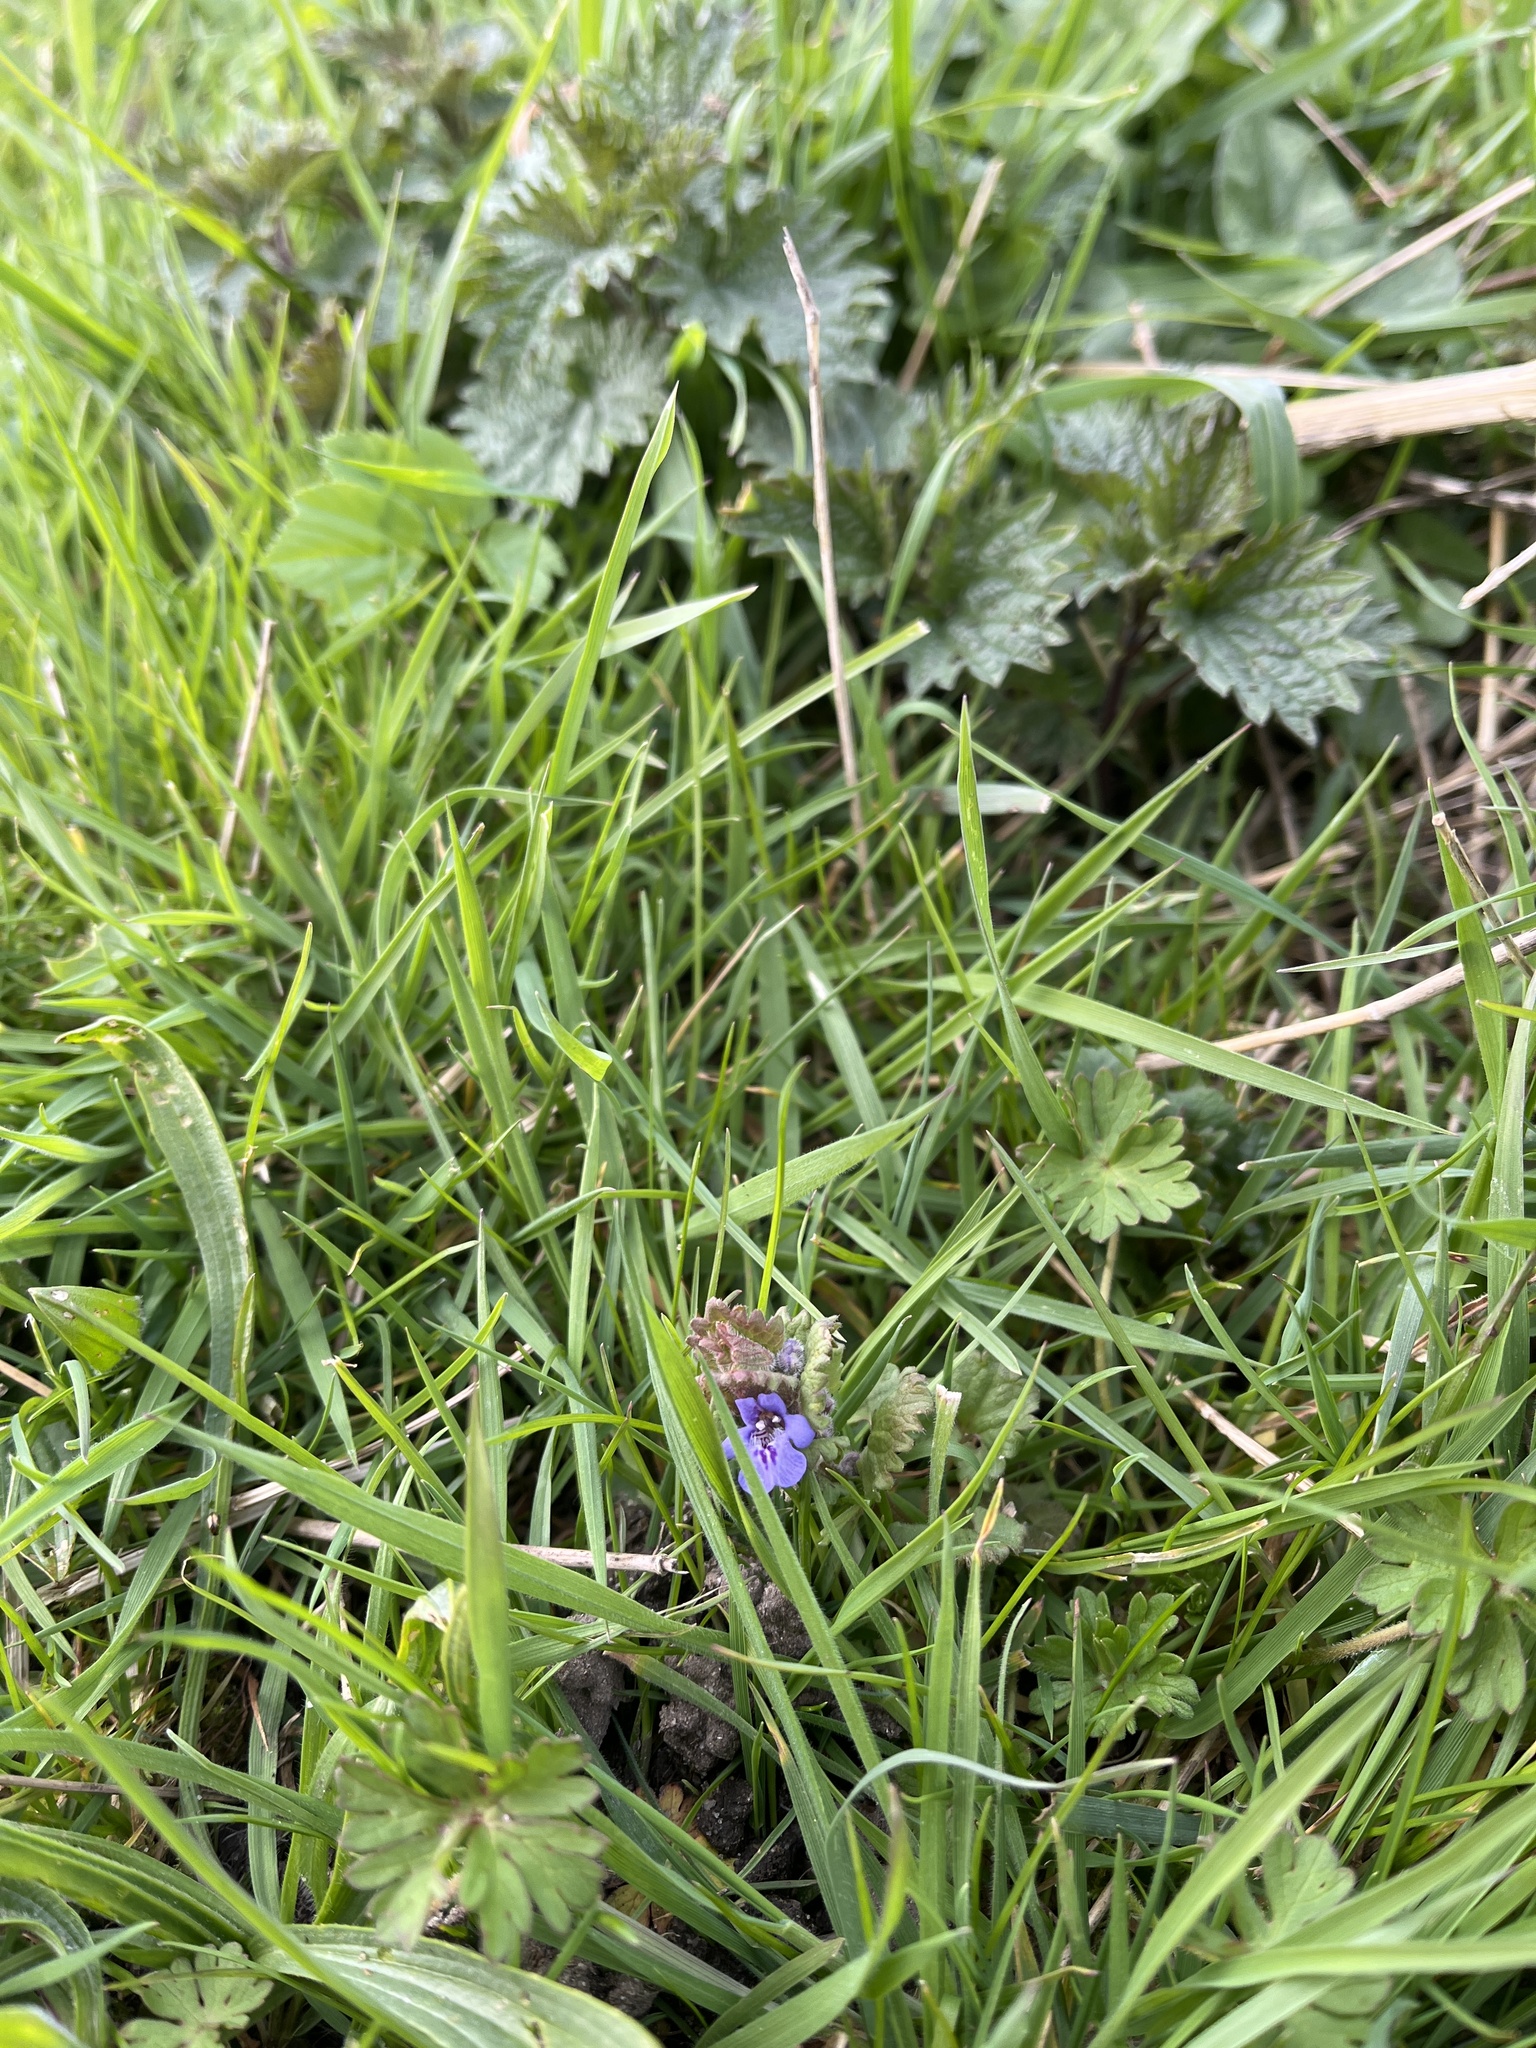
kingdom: Plantae
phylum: Tracheophyta
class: Magnoliopsida
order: Lamiales
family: Lamiaceae
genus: Glechoma
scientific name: Glechoma hederacea
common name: Ground ivy
